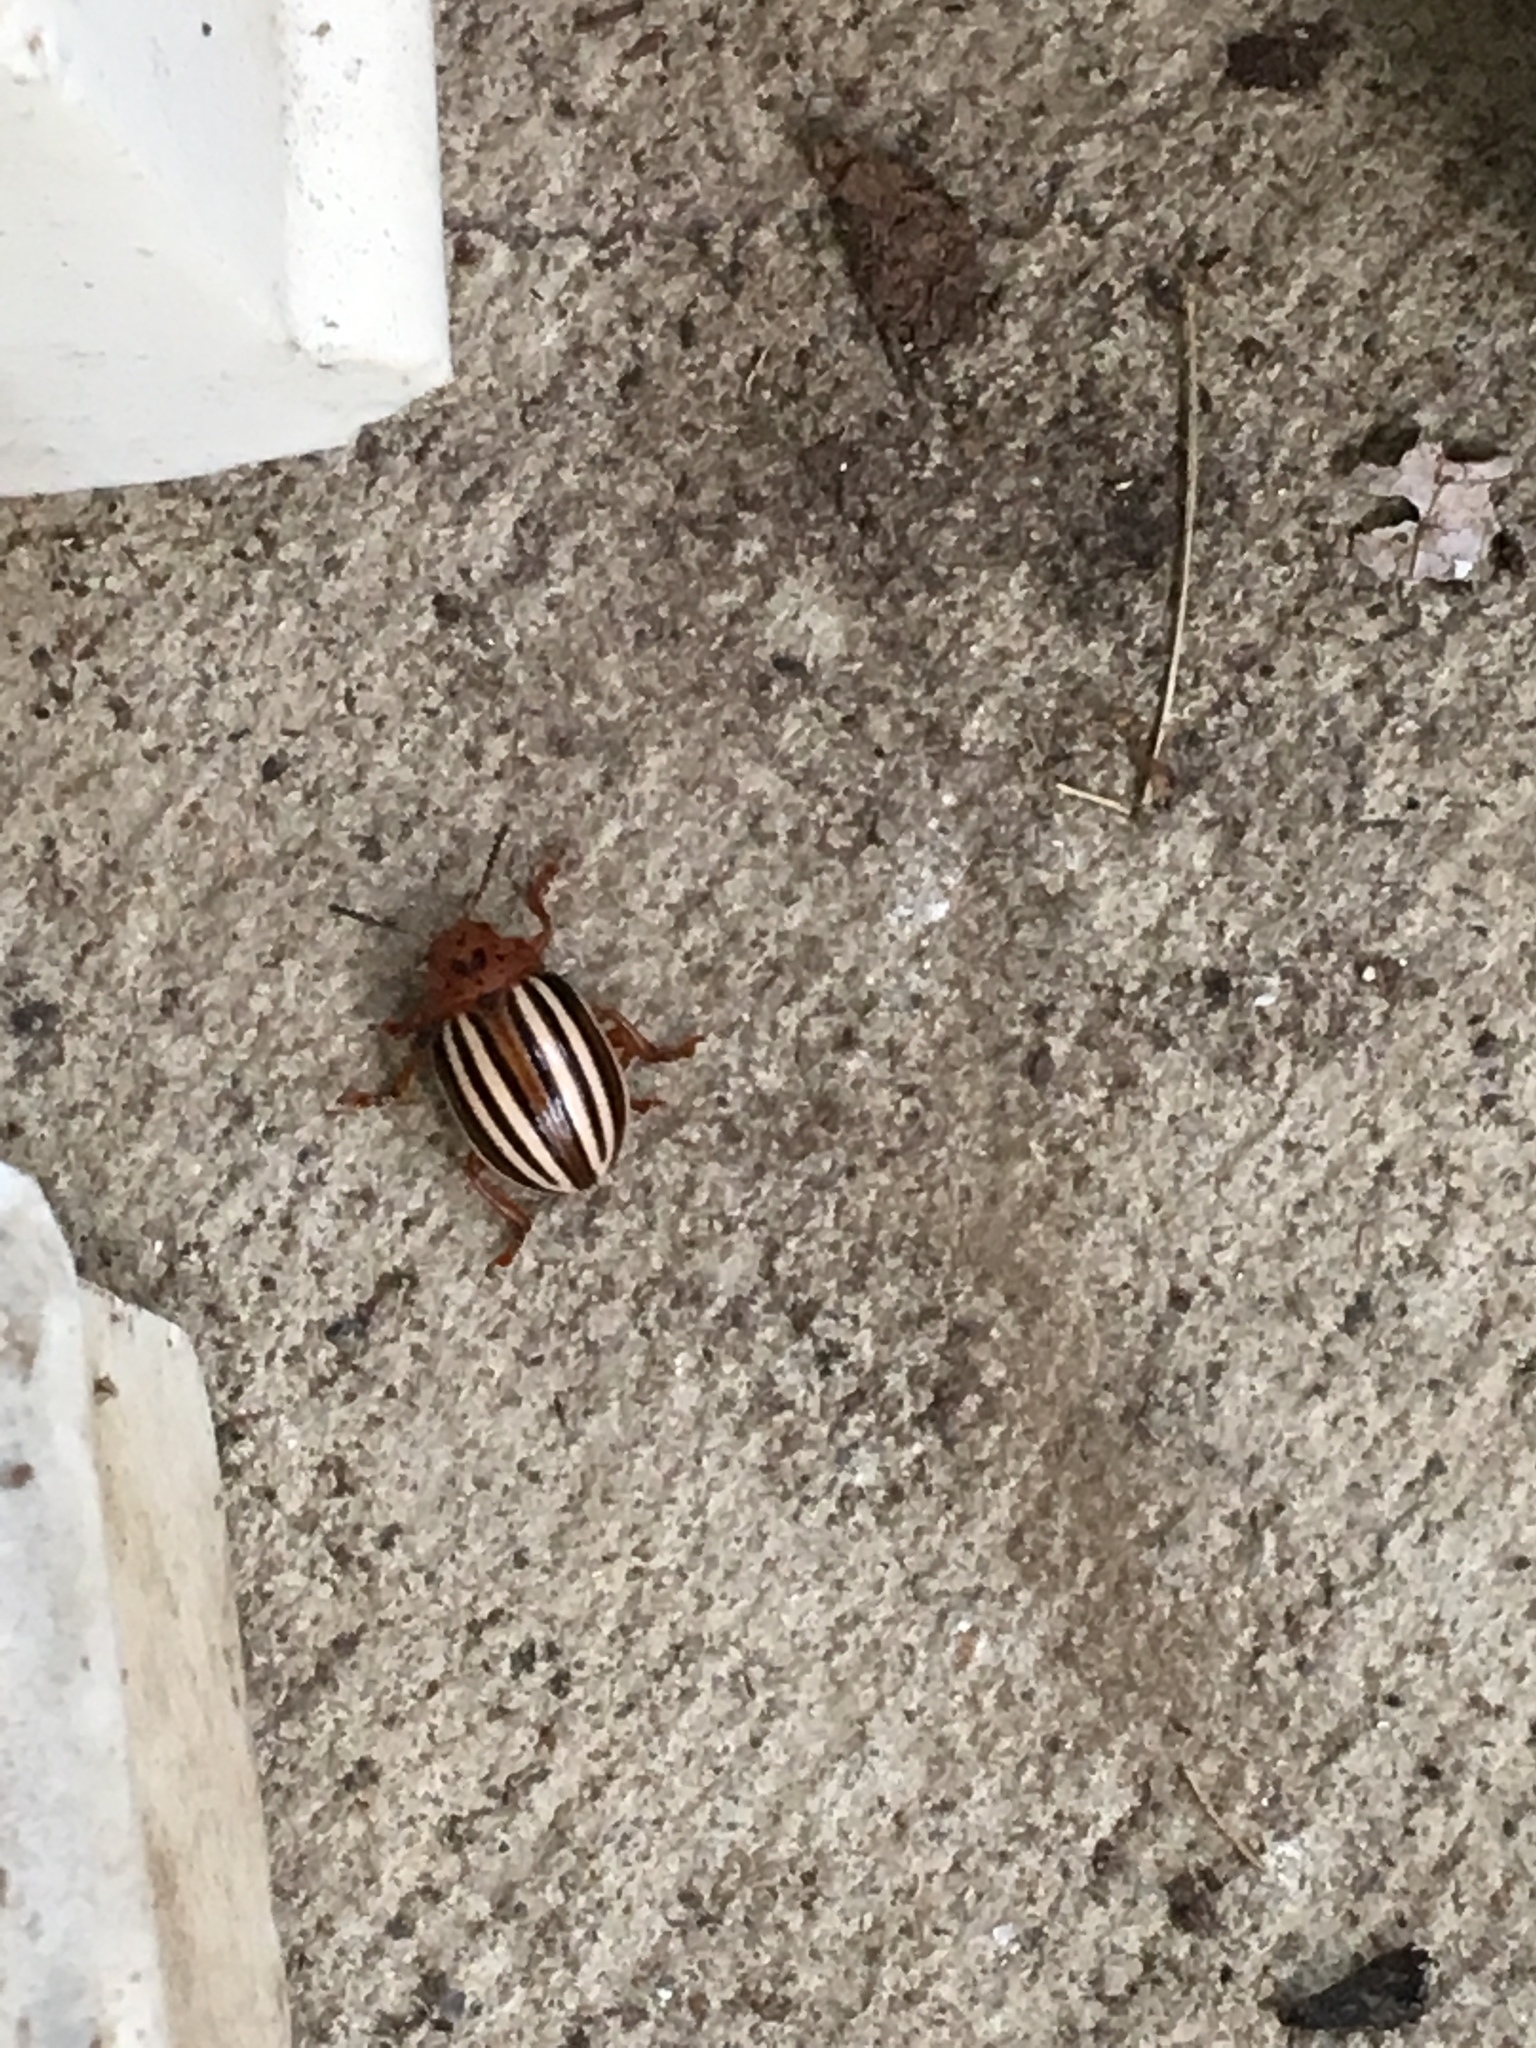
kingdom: Animalia
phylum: Arthropoda
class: Insecta
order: Coleoptera
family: Chrysomelidae
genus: Leptinotarsa
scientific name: Leptinotarsa juncta
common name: False potato beetle
